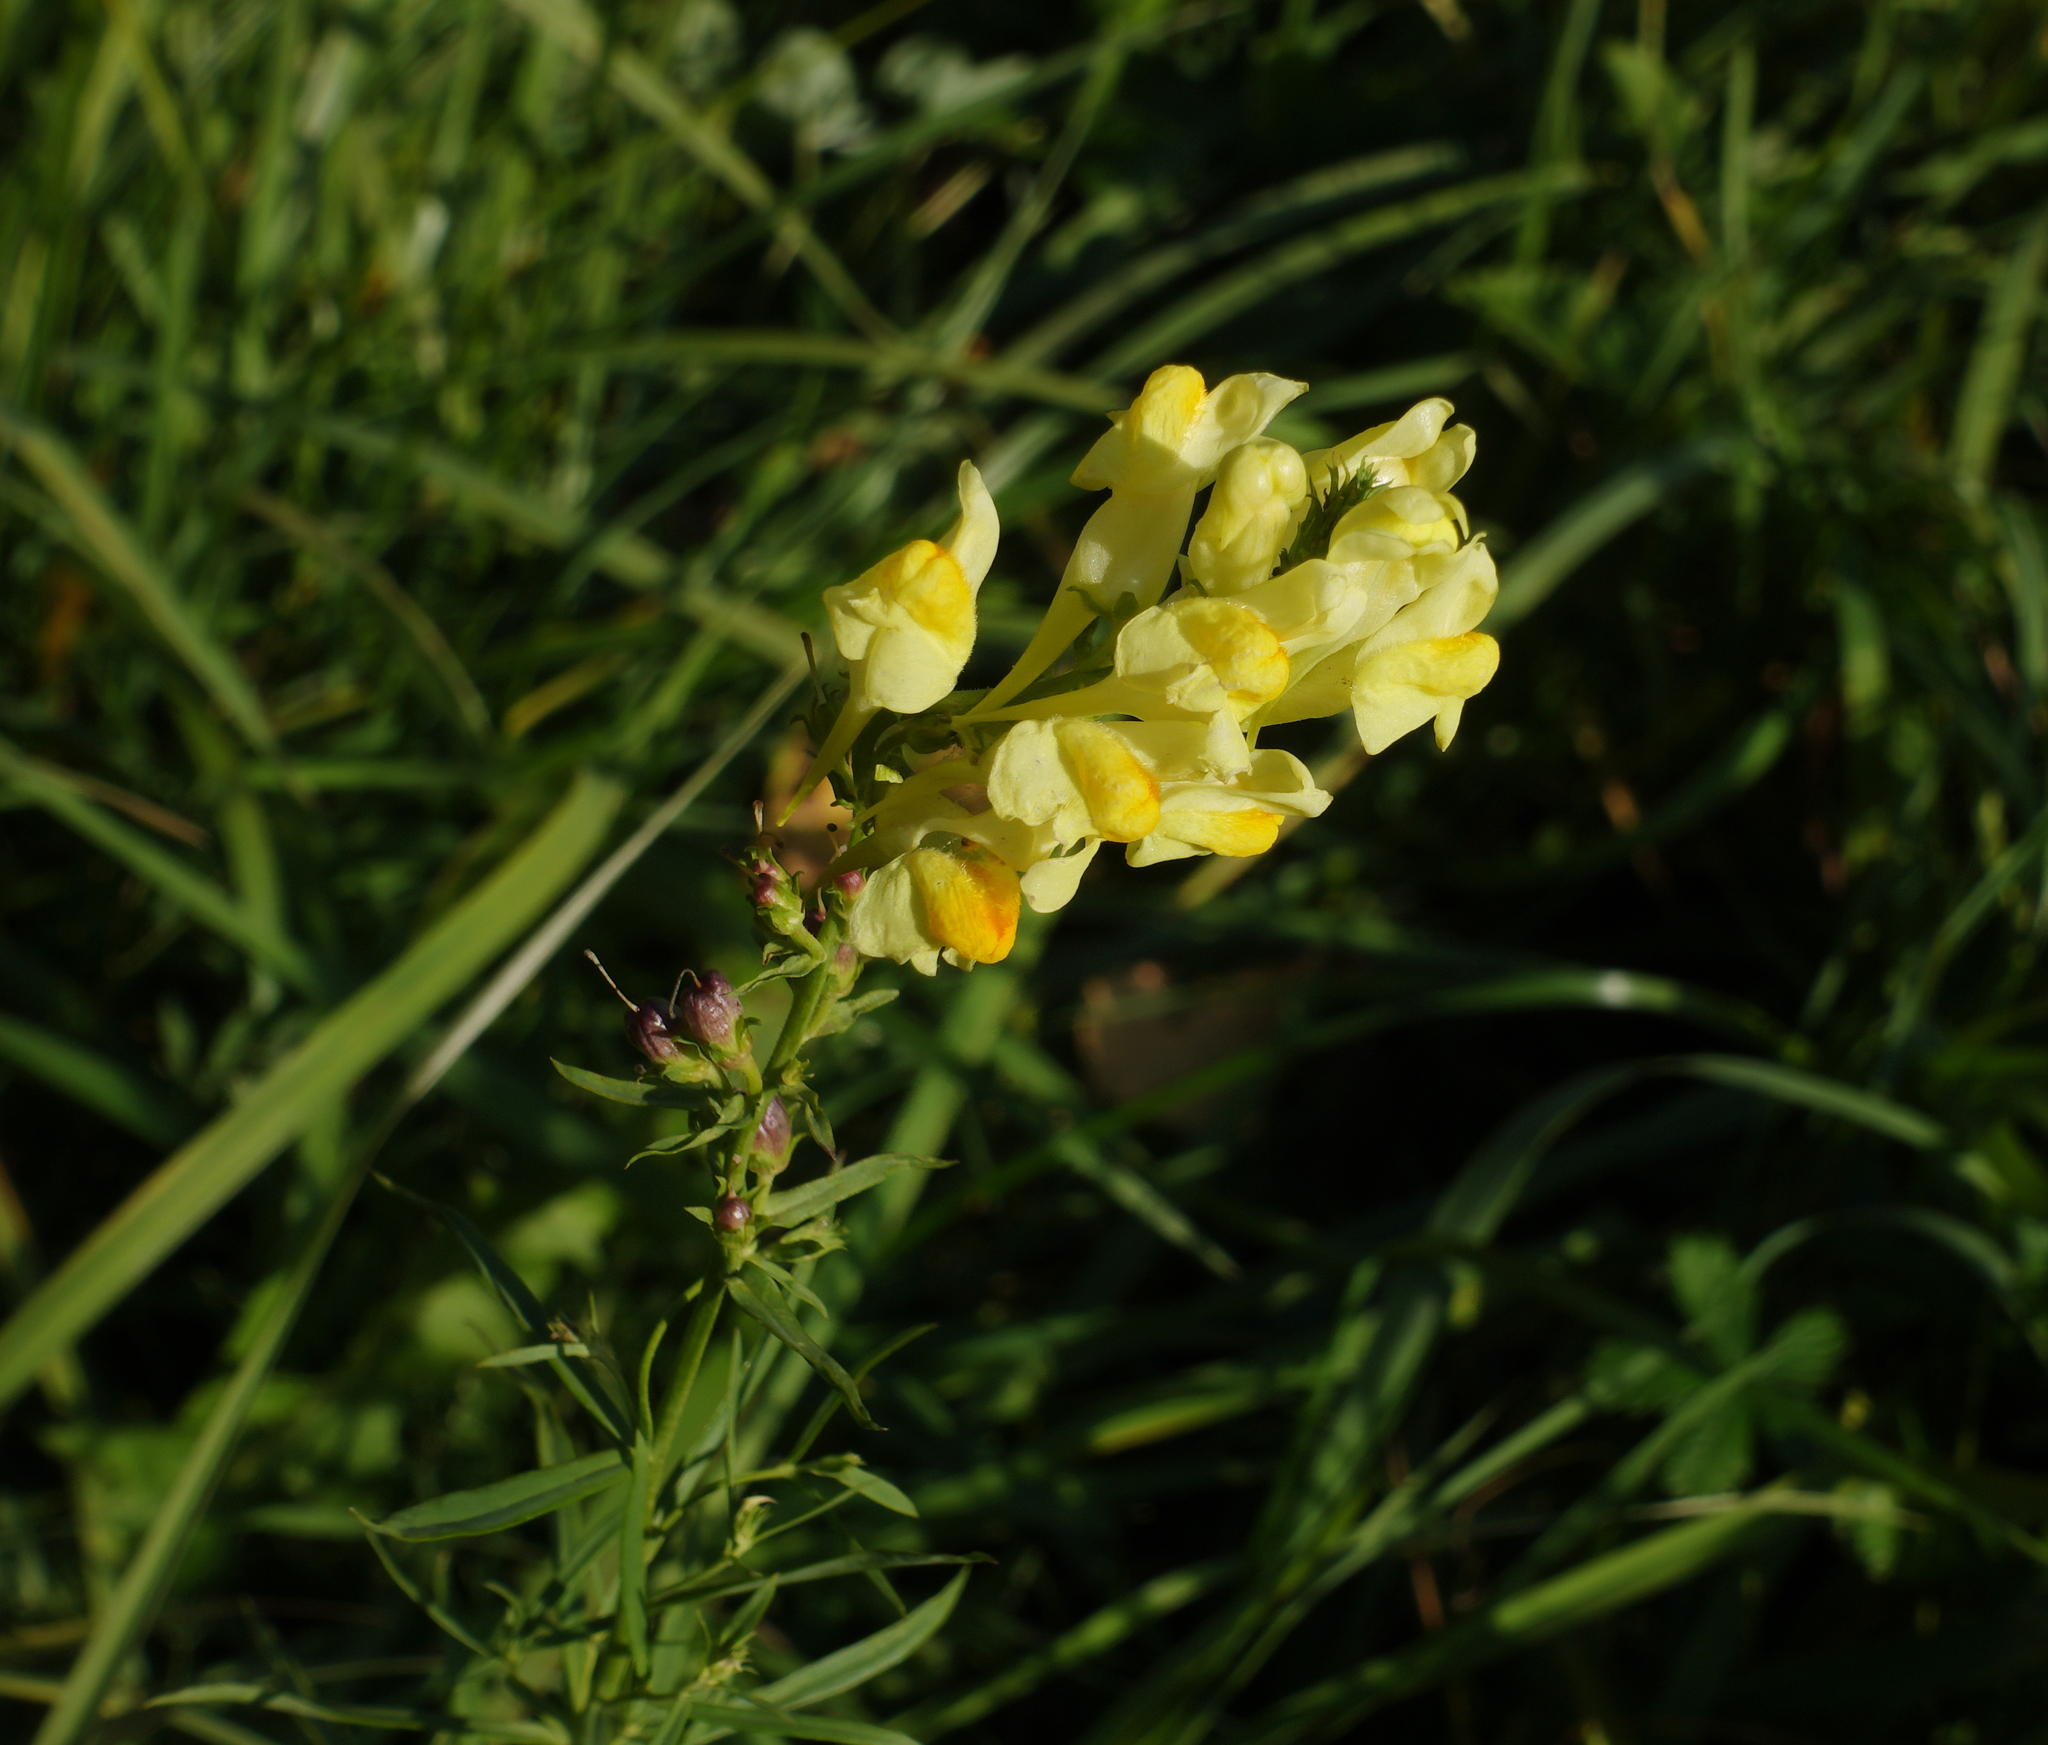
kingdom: Plantae
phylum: Tracheophyta
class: Magnoliopsida
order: Lamiales
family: Plantaginaceae
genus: Linaria
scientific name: Linaria vulgaris
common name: Butter and eggs
